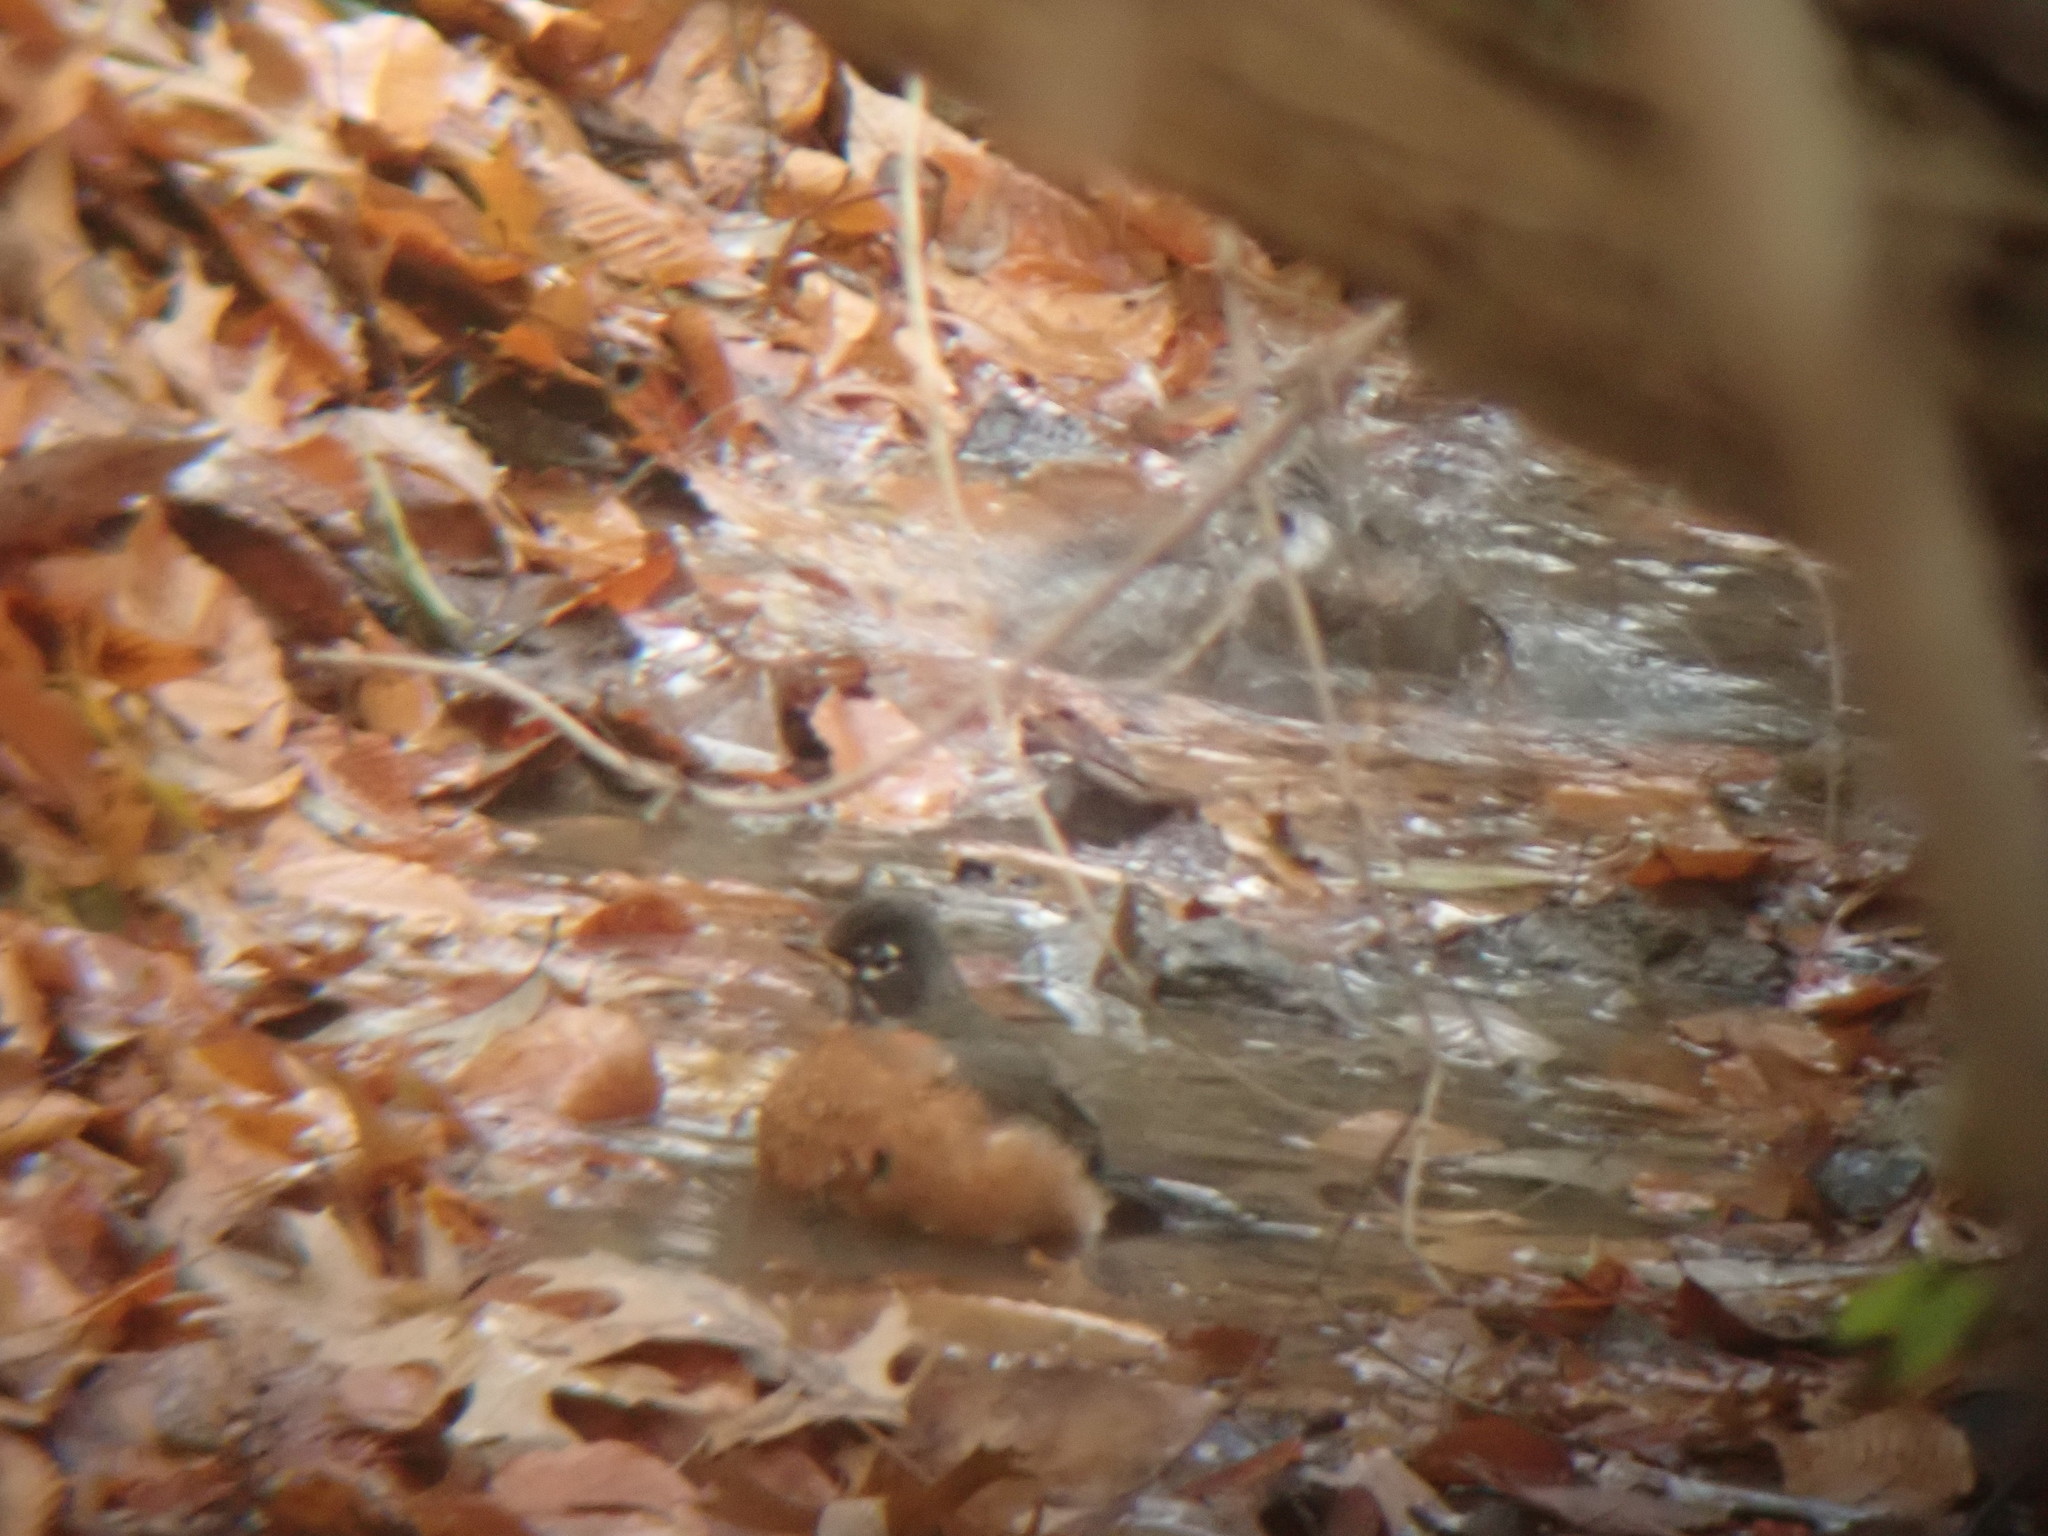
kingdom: Animalia
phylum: Chordata
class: Aves
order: Passeriformes
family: Turdidae
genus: Turdus
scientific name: Turdus migratorius
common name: American robin
